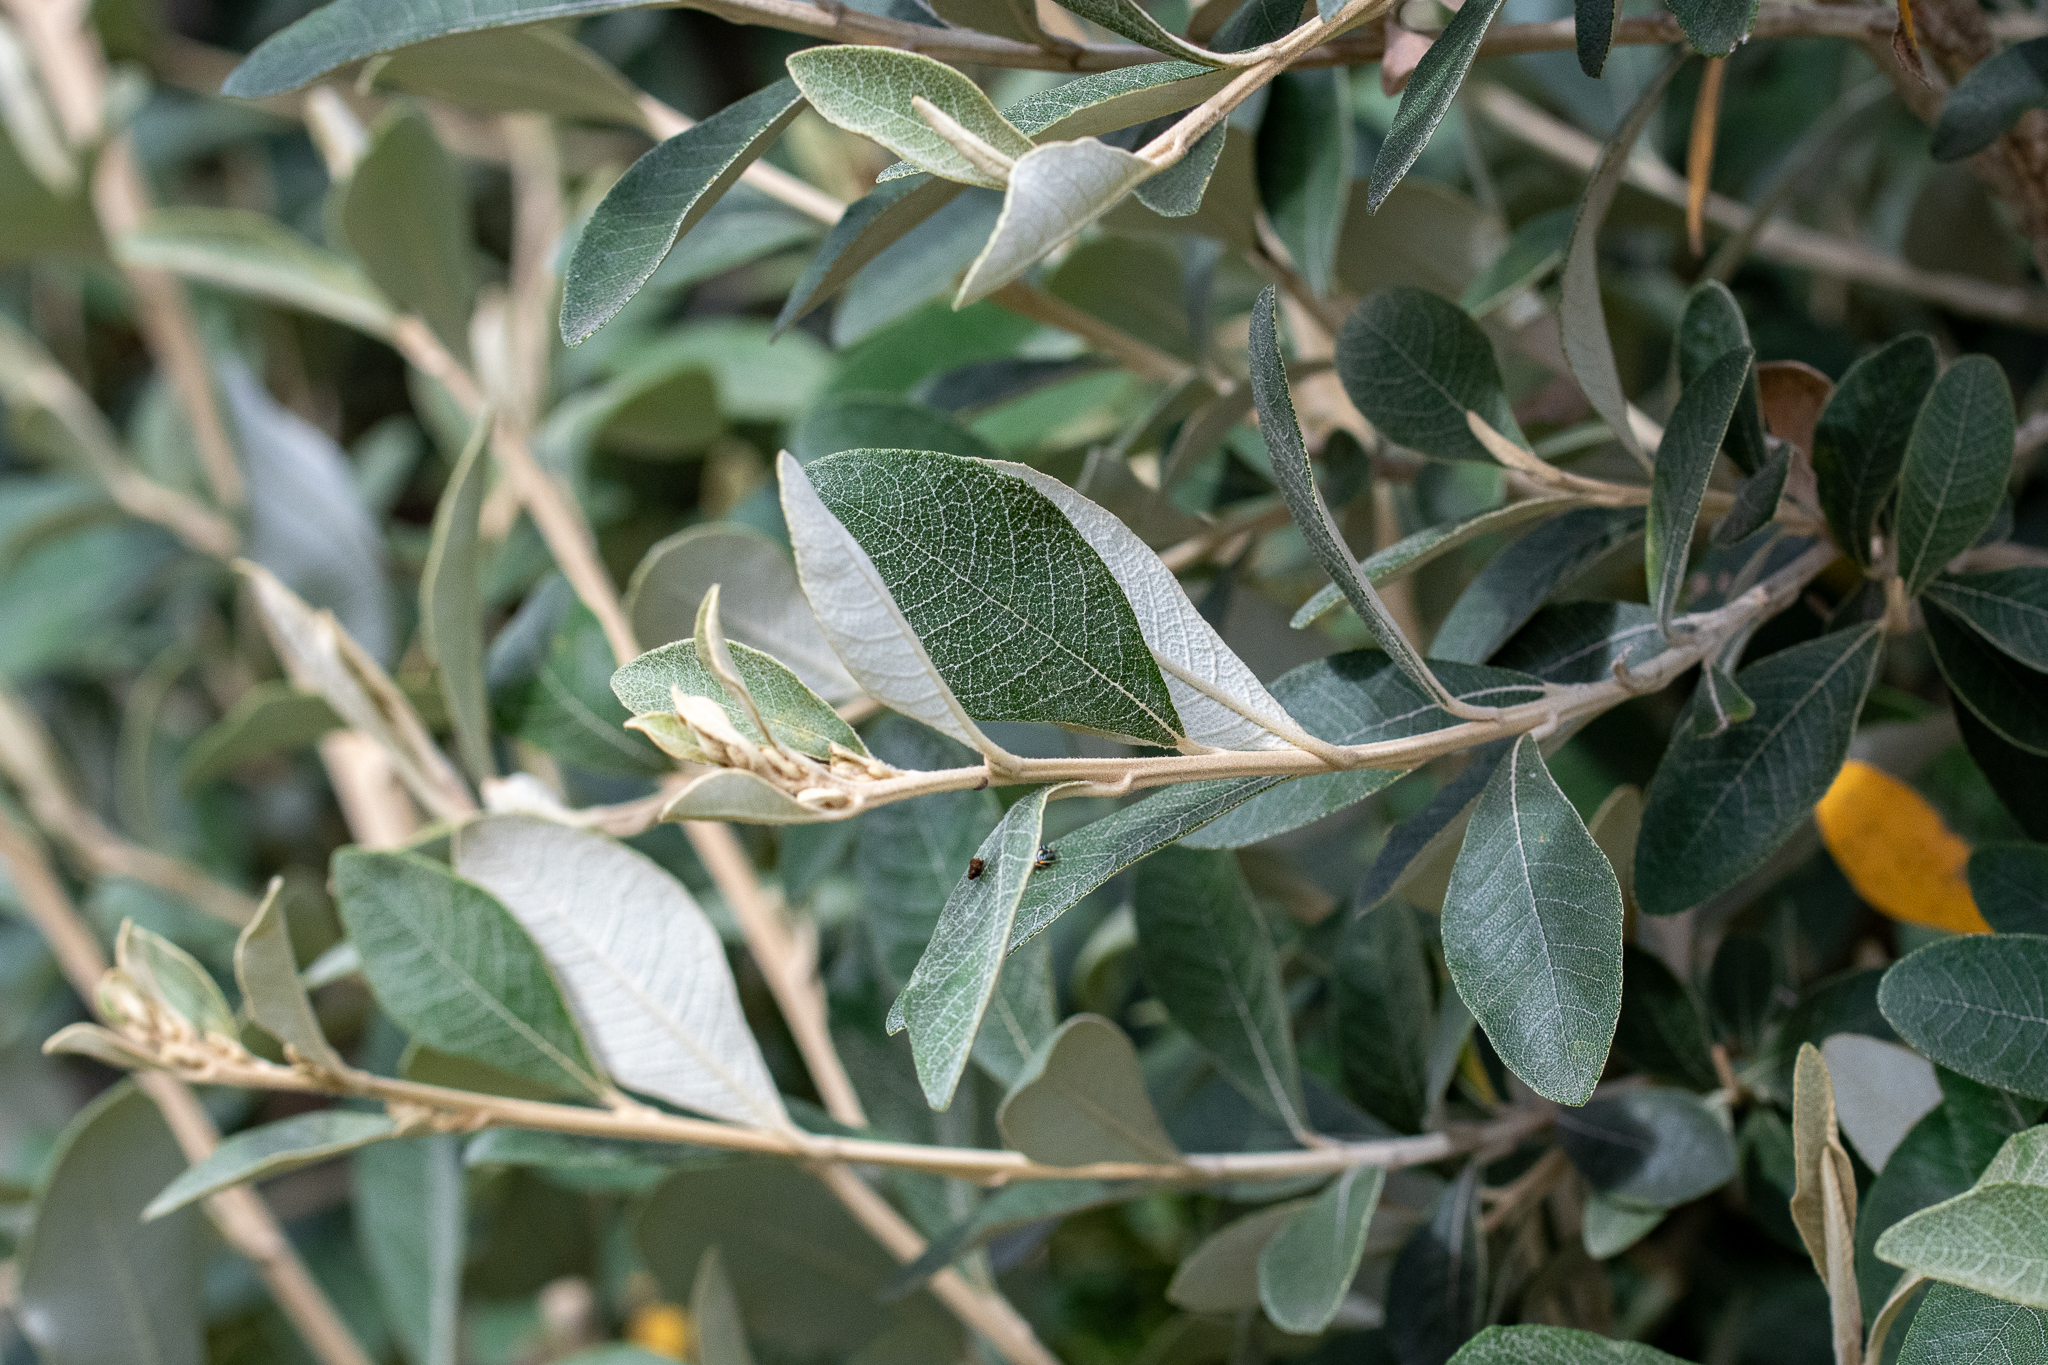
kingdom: Plantae
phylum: Tracheophyta
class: Magnoliopsida
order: Asterales
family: Asteraceae
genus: Tarchonanthus
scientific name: Tarchonanthus littoralis
